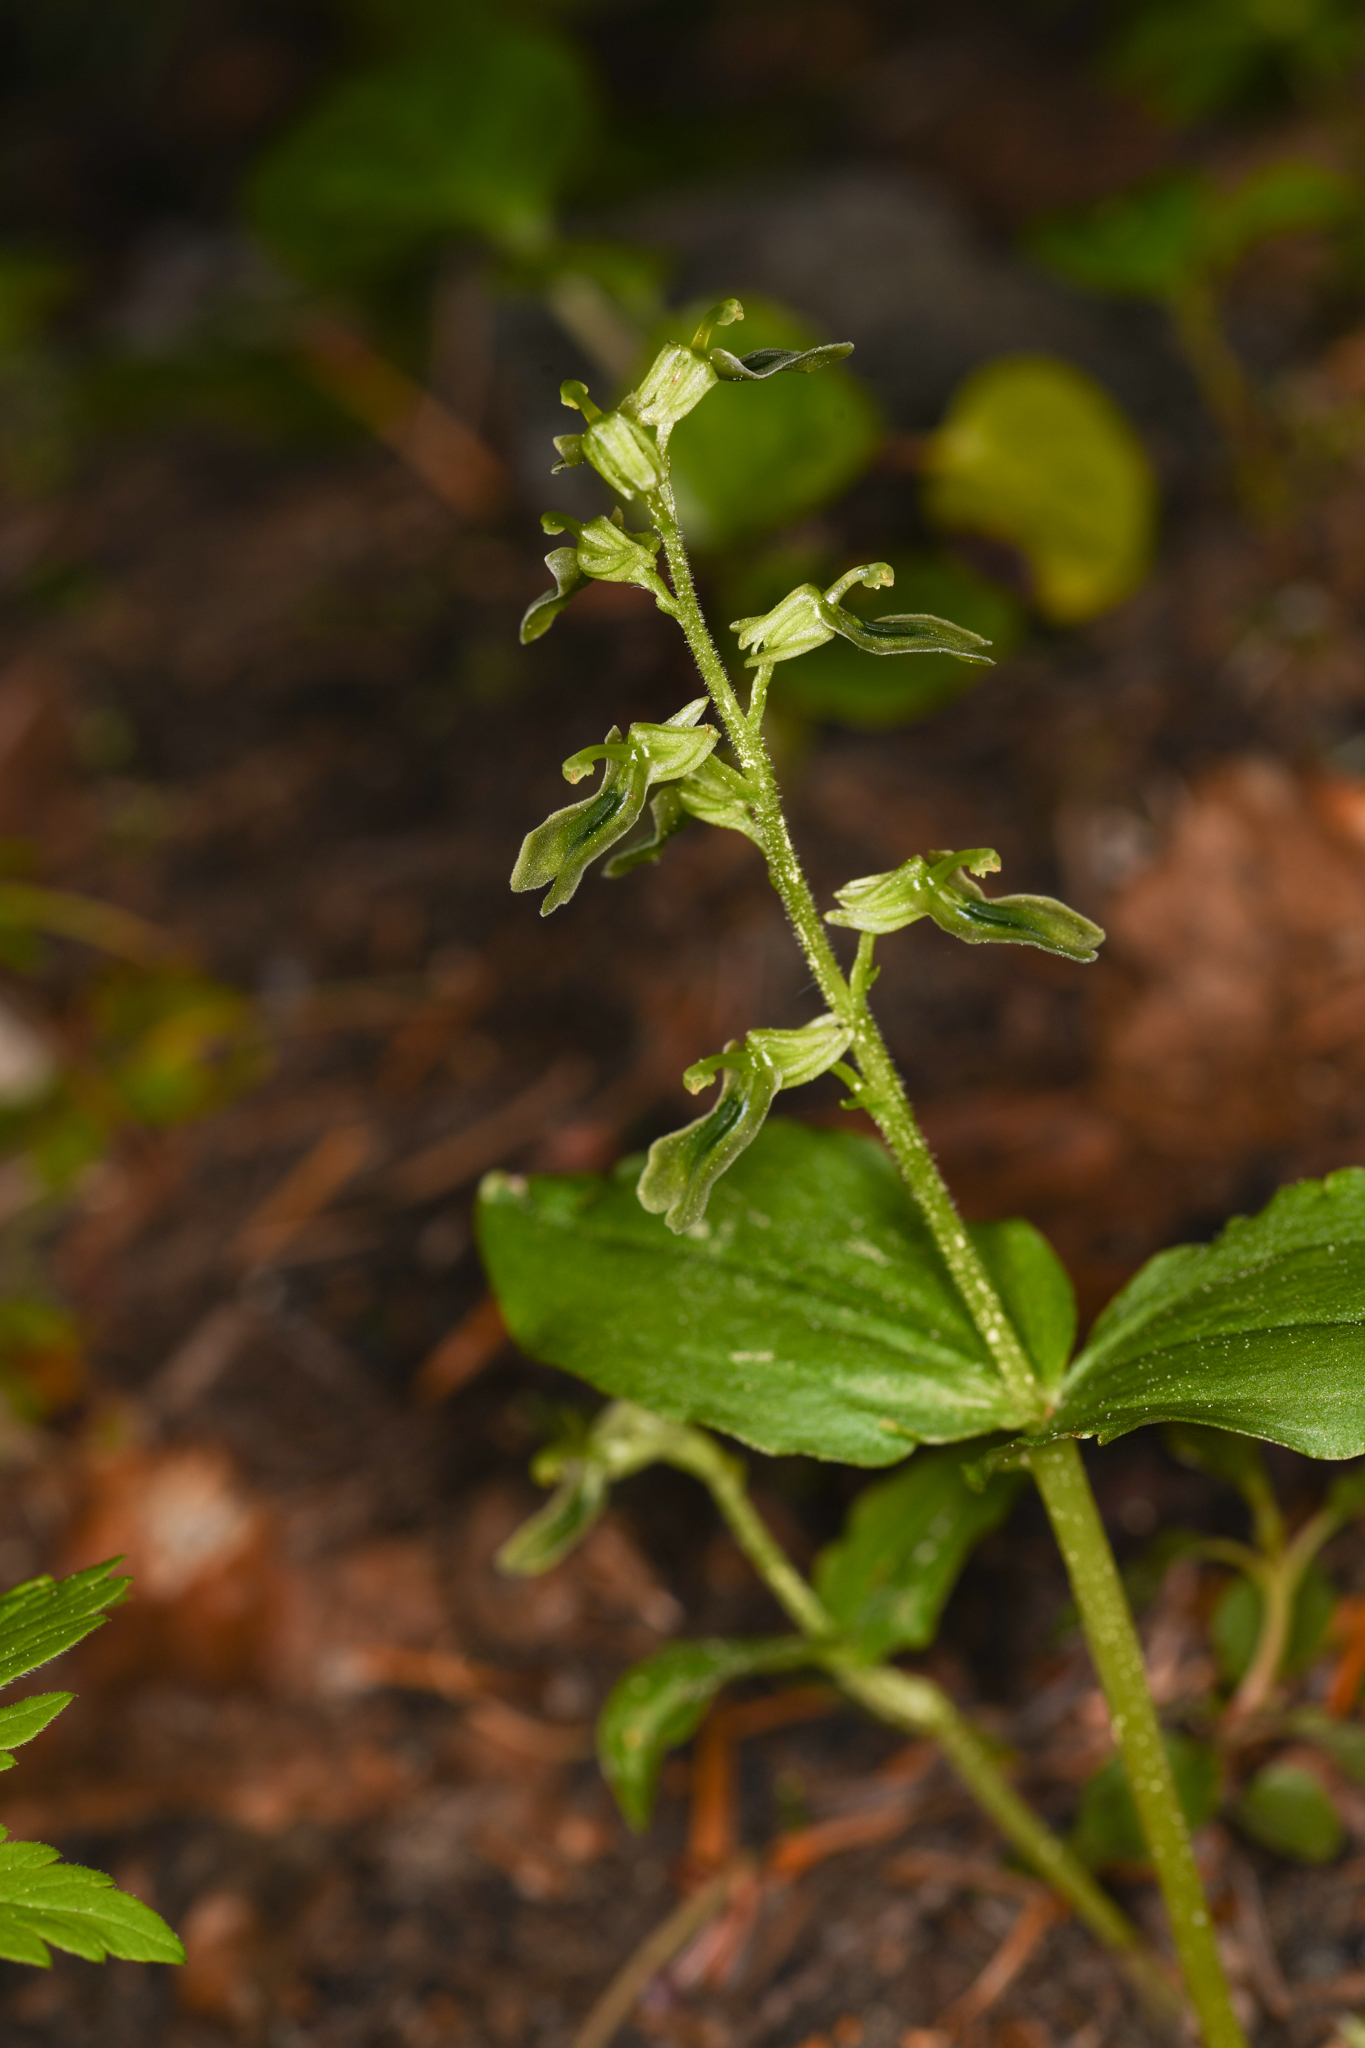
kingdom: Plantae
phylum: Tracheophyta
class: Liliopsida
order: Asparagales
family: Orchidaceae
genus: Neottia
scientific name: Neottia borealis
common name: Northern twayblade
